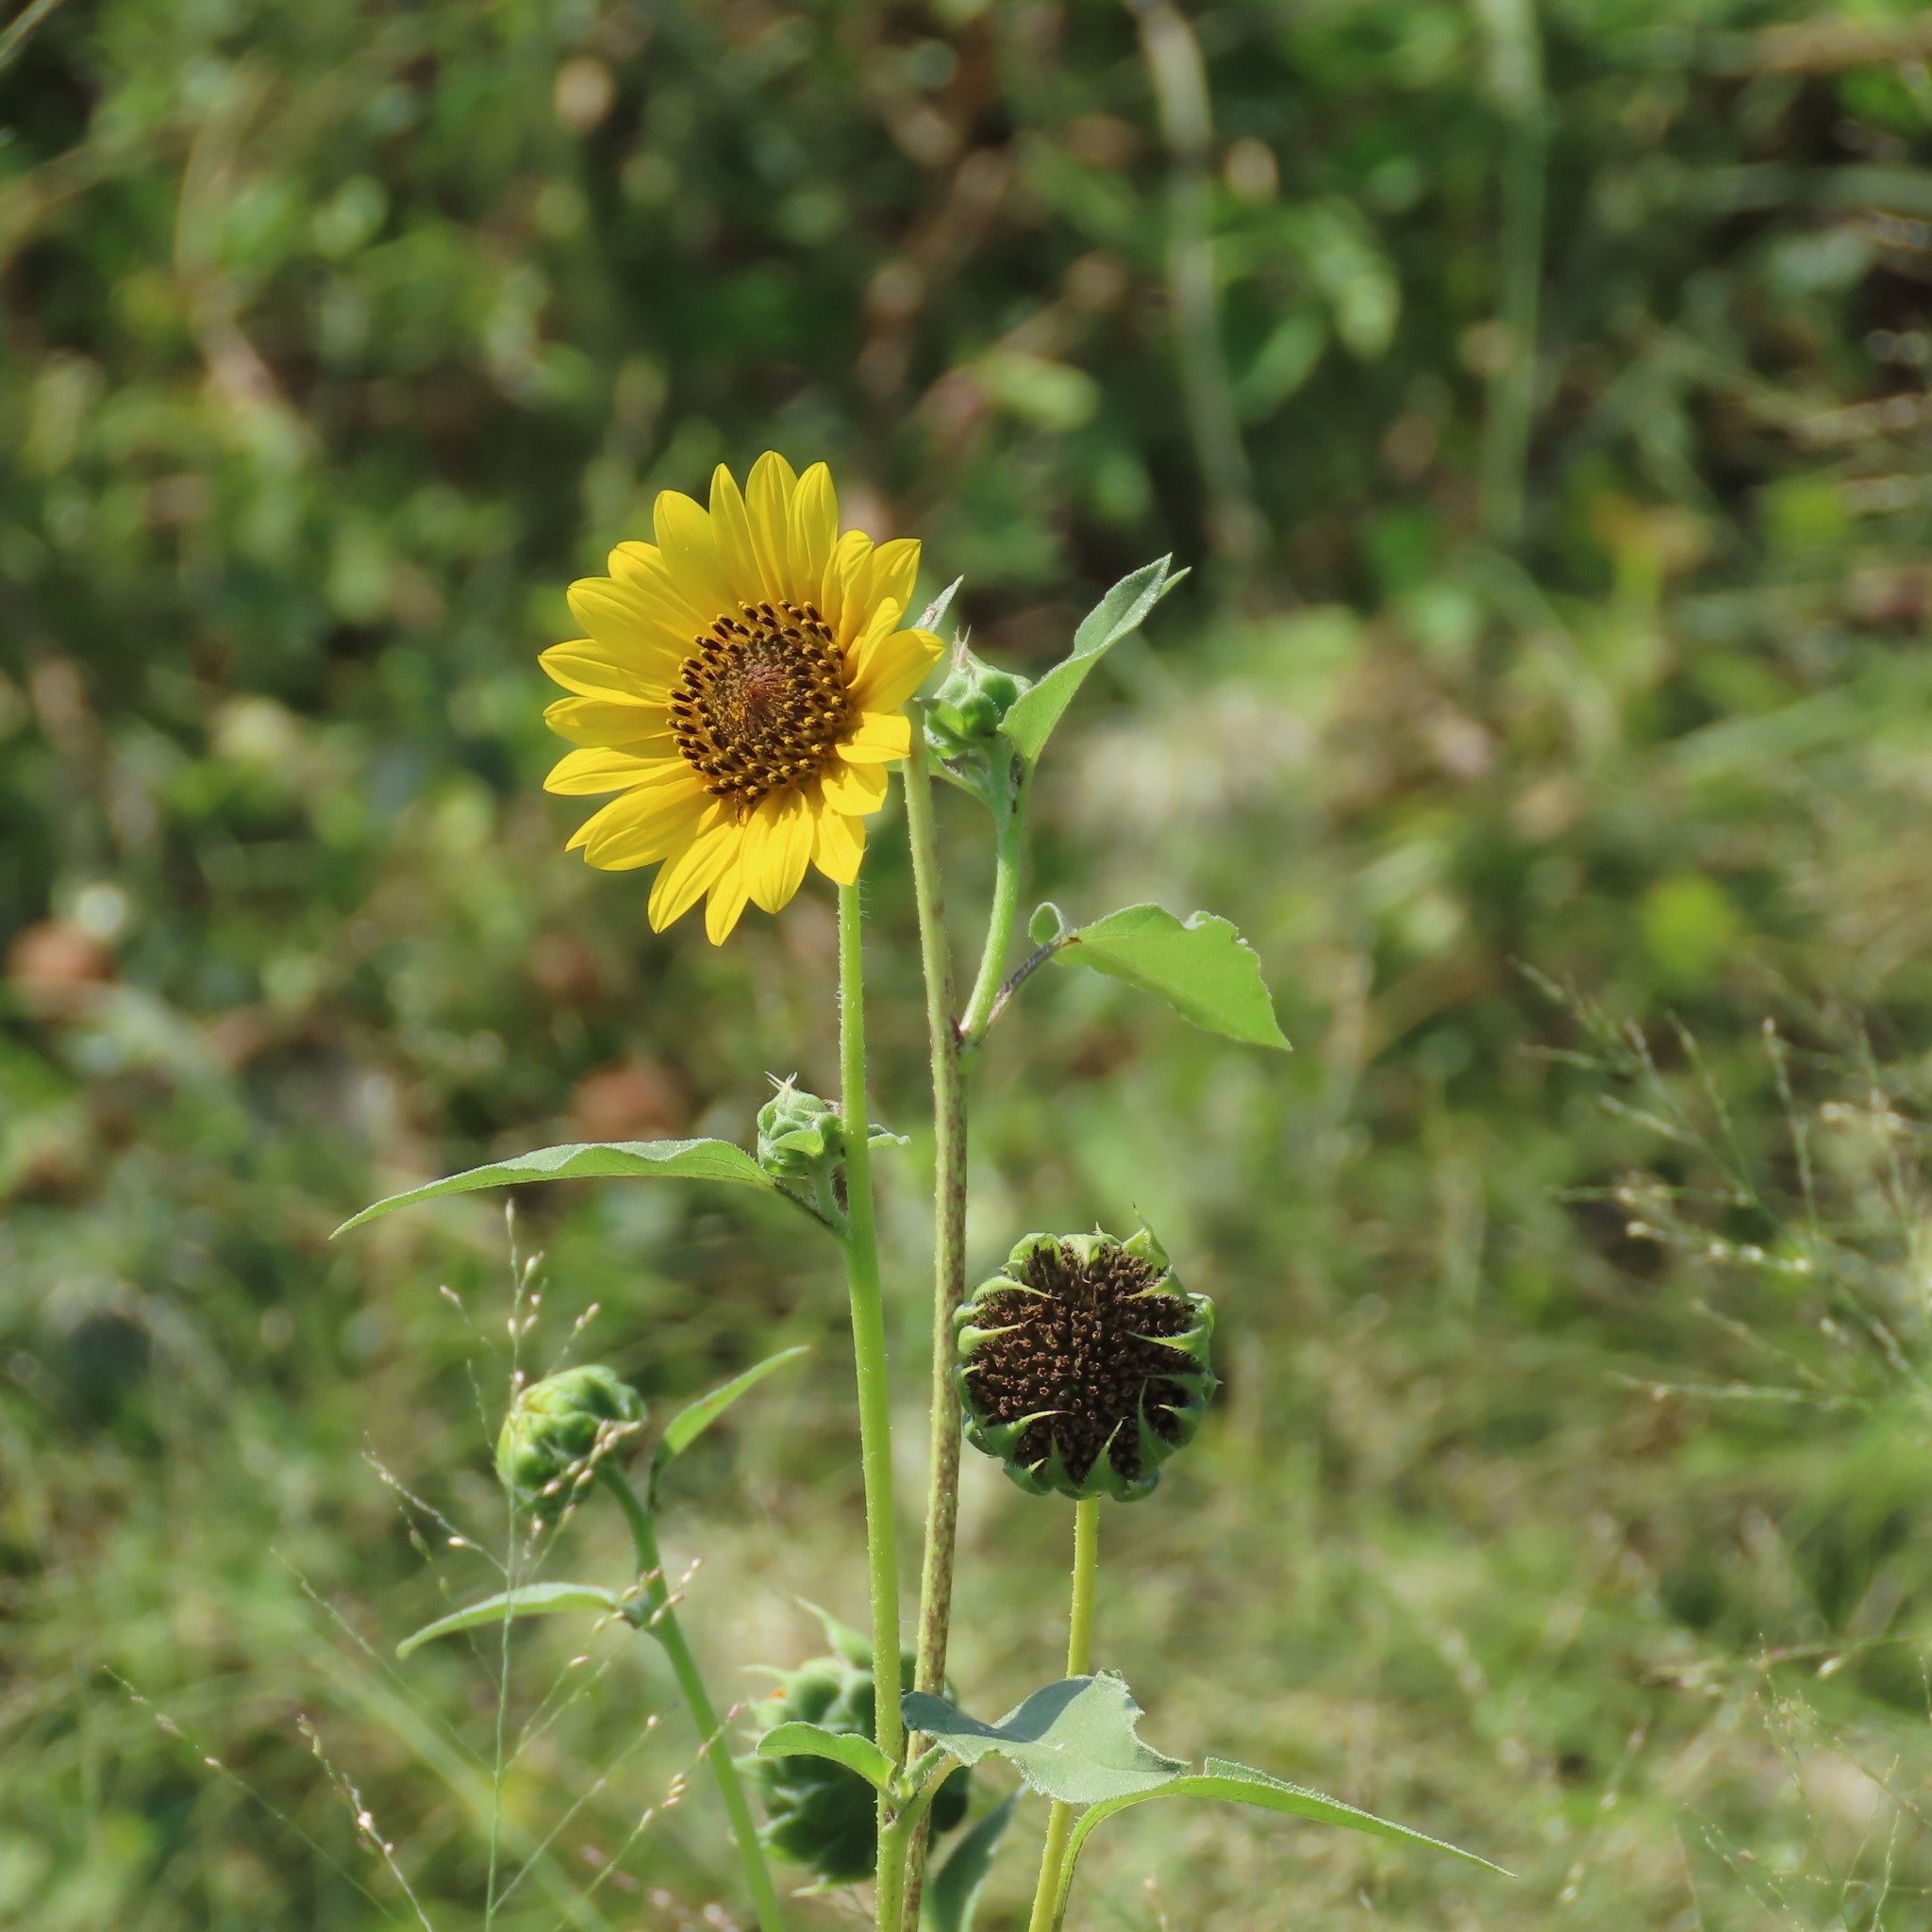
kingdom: Plantae
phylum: Tracheophyta
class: Magnoliopsida
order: Asterales
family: Asteraceae
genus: Helianthus
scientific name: Helianthus annuus
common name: Sunflower
